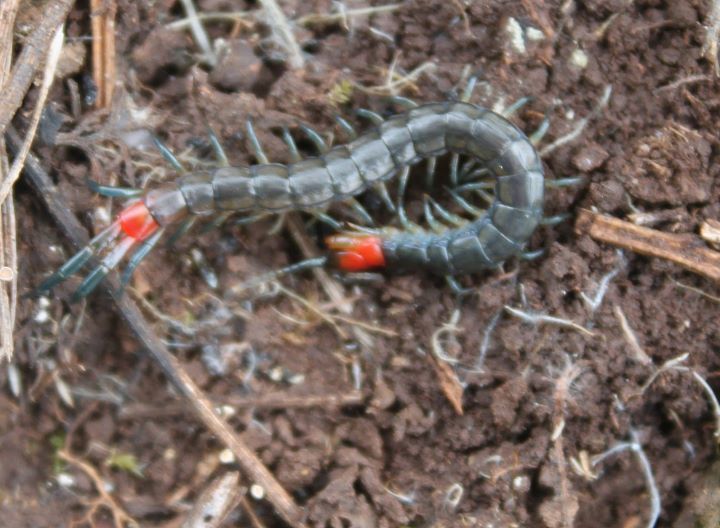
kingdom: Animalia
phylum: Arthropoda
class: Chilopoda
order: Scolopendromorpha
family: Scolopendridae
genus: Scolopendra
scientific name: Scolopendra cingulata
